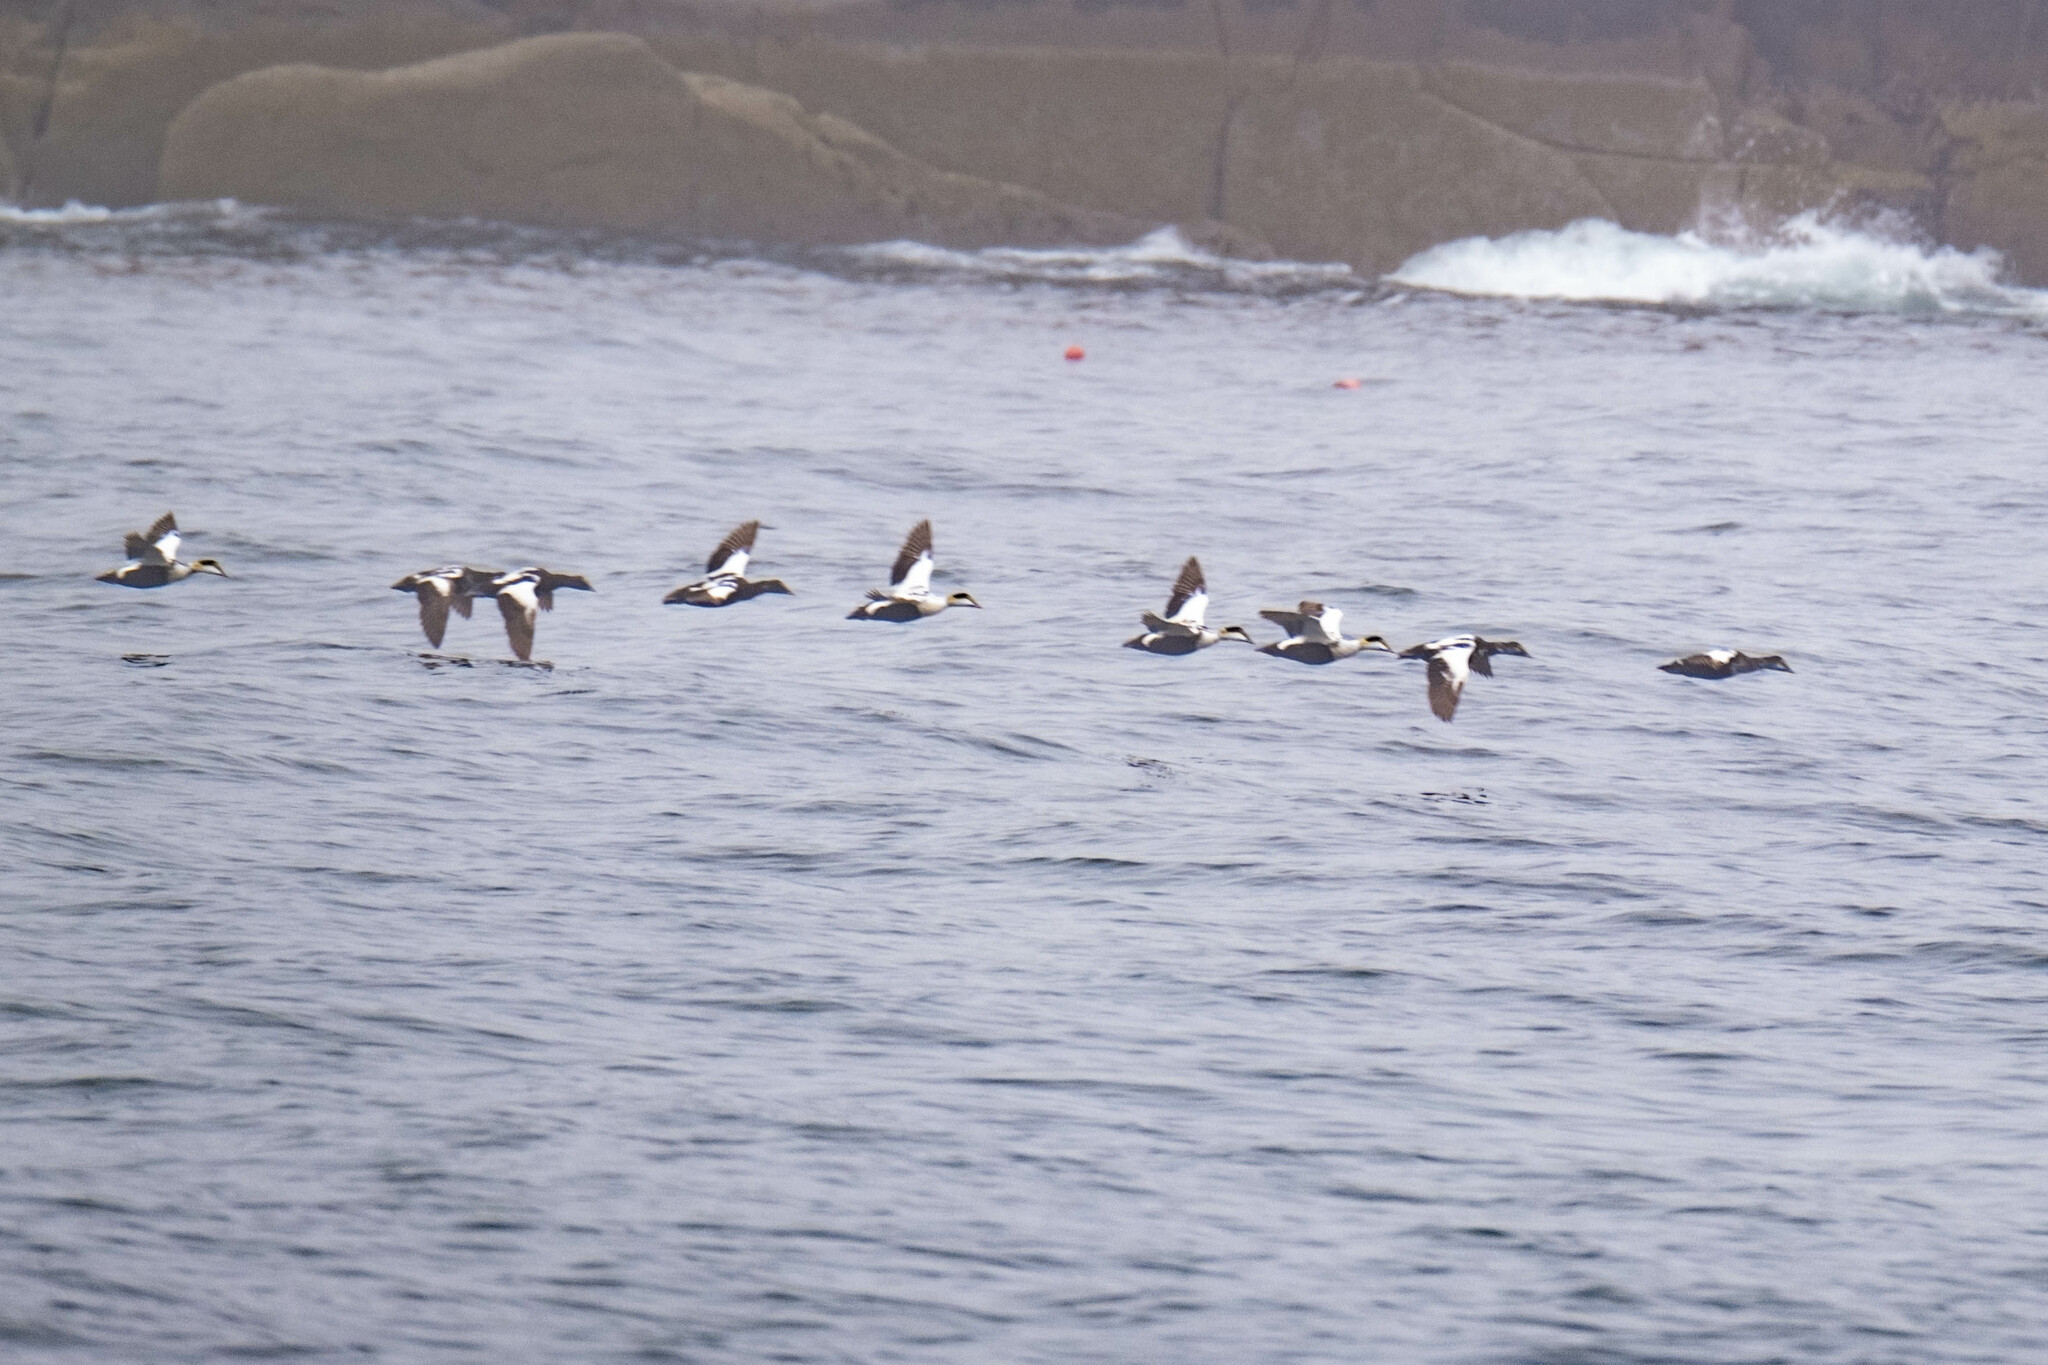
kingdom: Animalia
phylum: Chordata
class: Aves
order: Anseriformes
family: Anatidae
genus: Somateria
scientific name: Somateria mollissima
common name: Common eider
